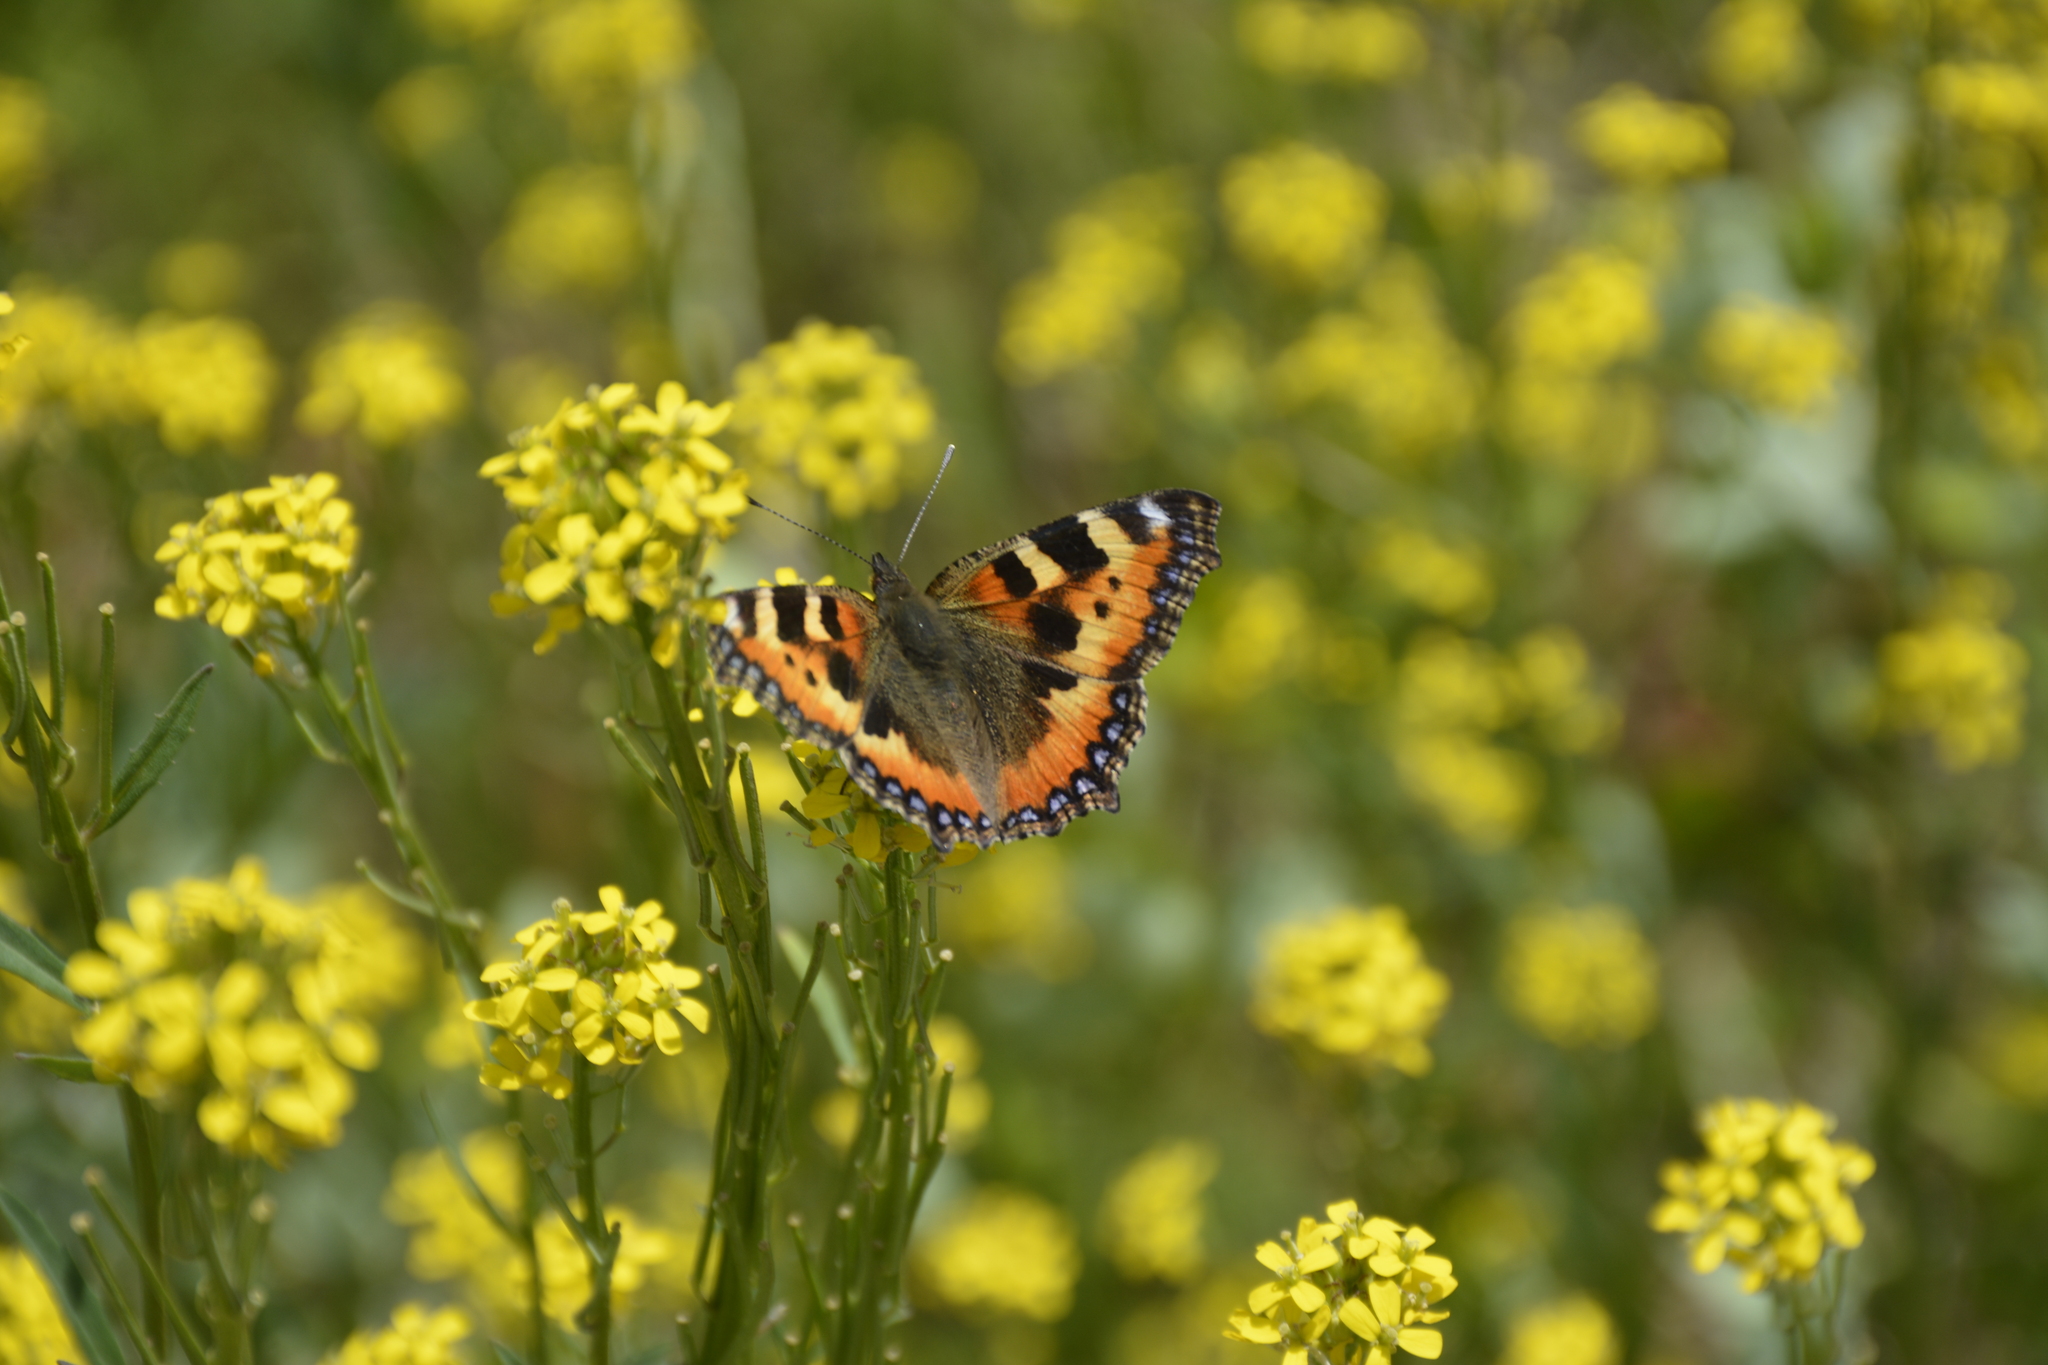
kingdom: Animalia
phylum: Arthropoda
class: Insecta
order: Lepidoptera
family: Nymphalidae
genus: Aglais
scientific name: Aglais urticae
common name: Small tortoiseshell
